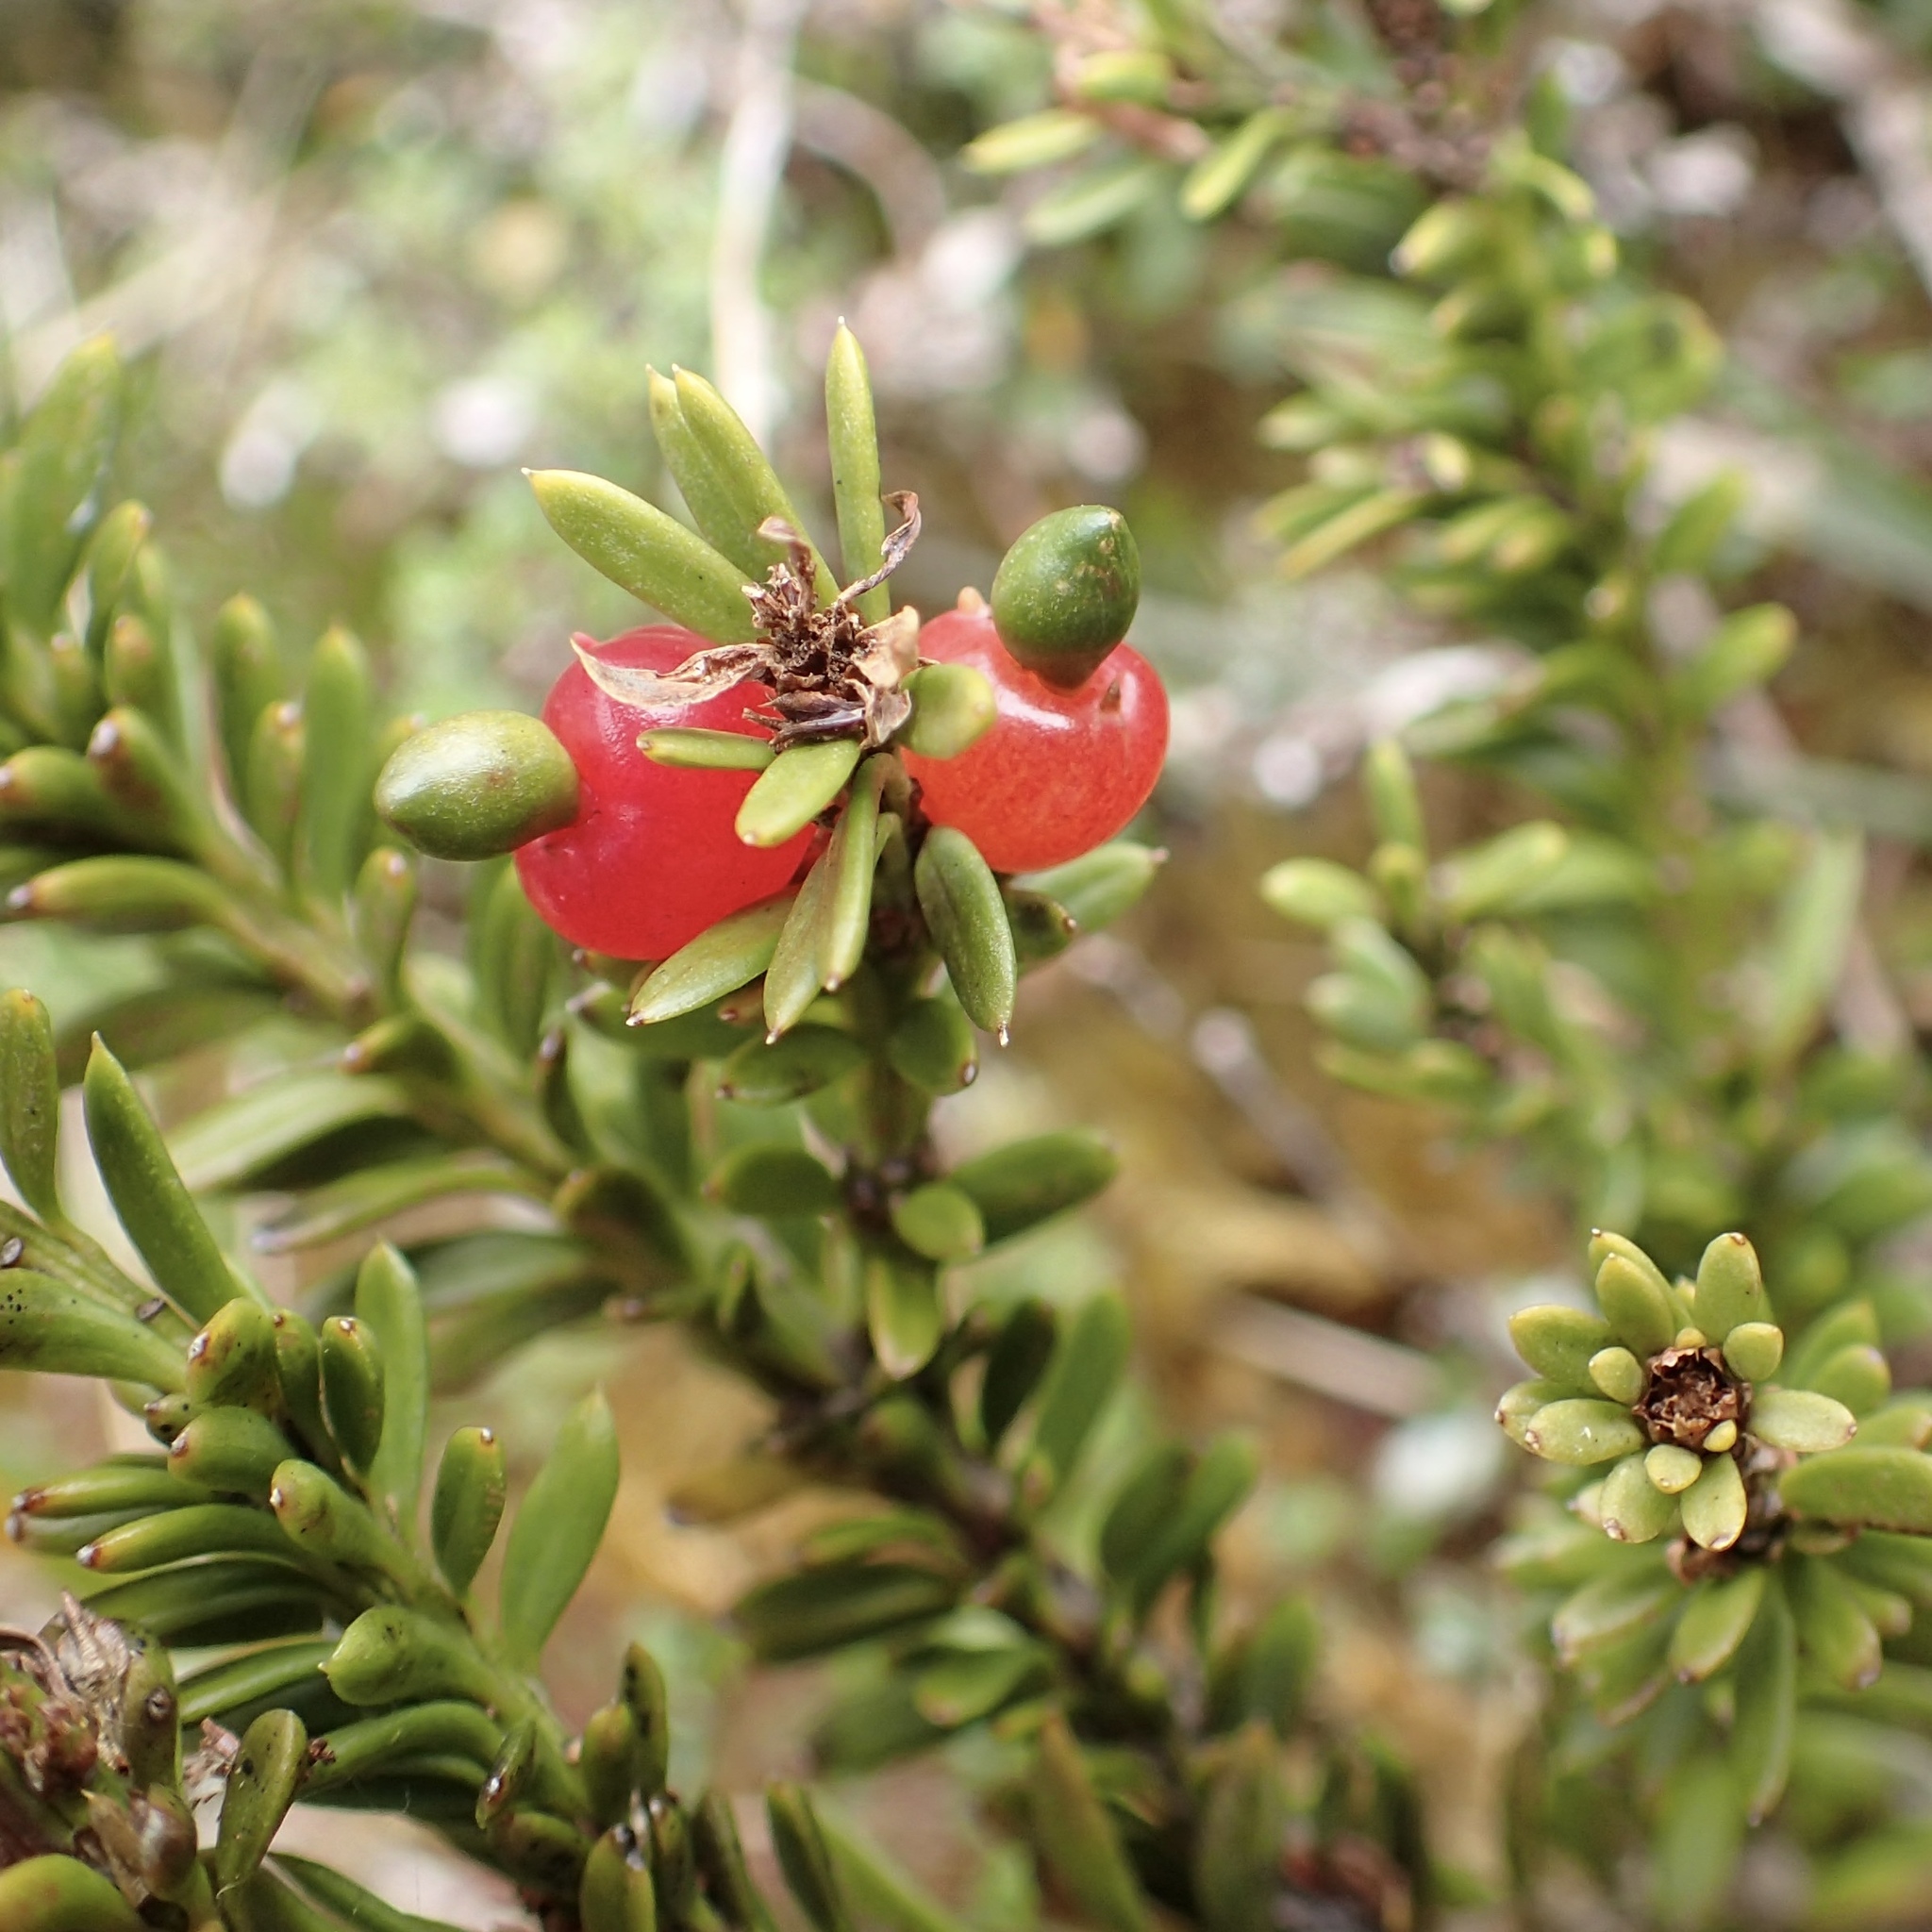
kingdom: Plantae
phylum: Tracheophyta
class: Pinopsida
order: Pinales
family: Podocarpaceae
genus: Podocarpus
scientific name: Podocarpus nivalis
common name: Alpine totara
